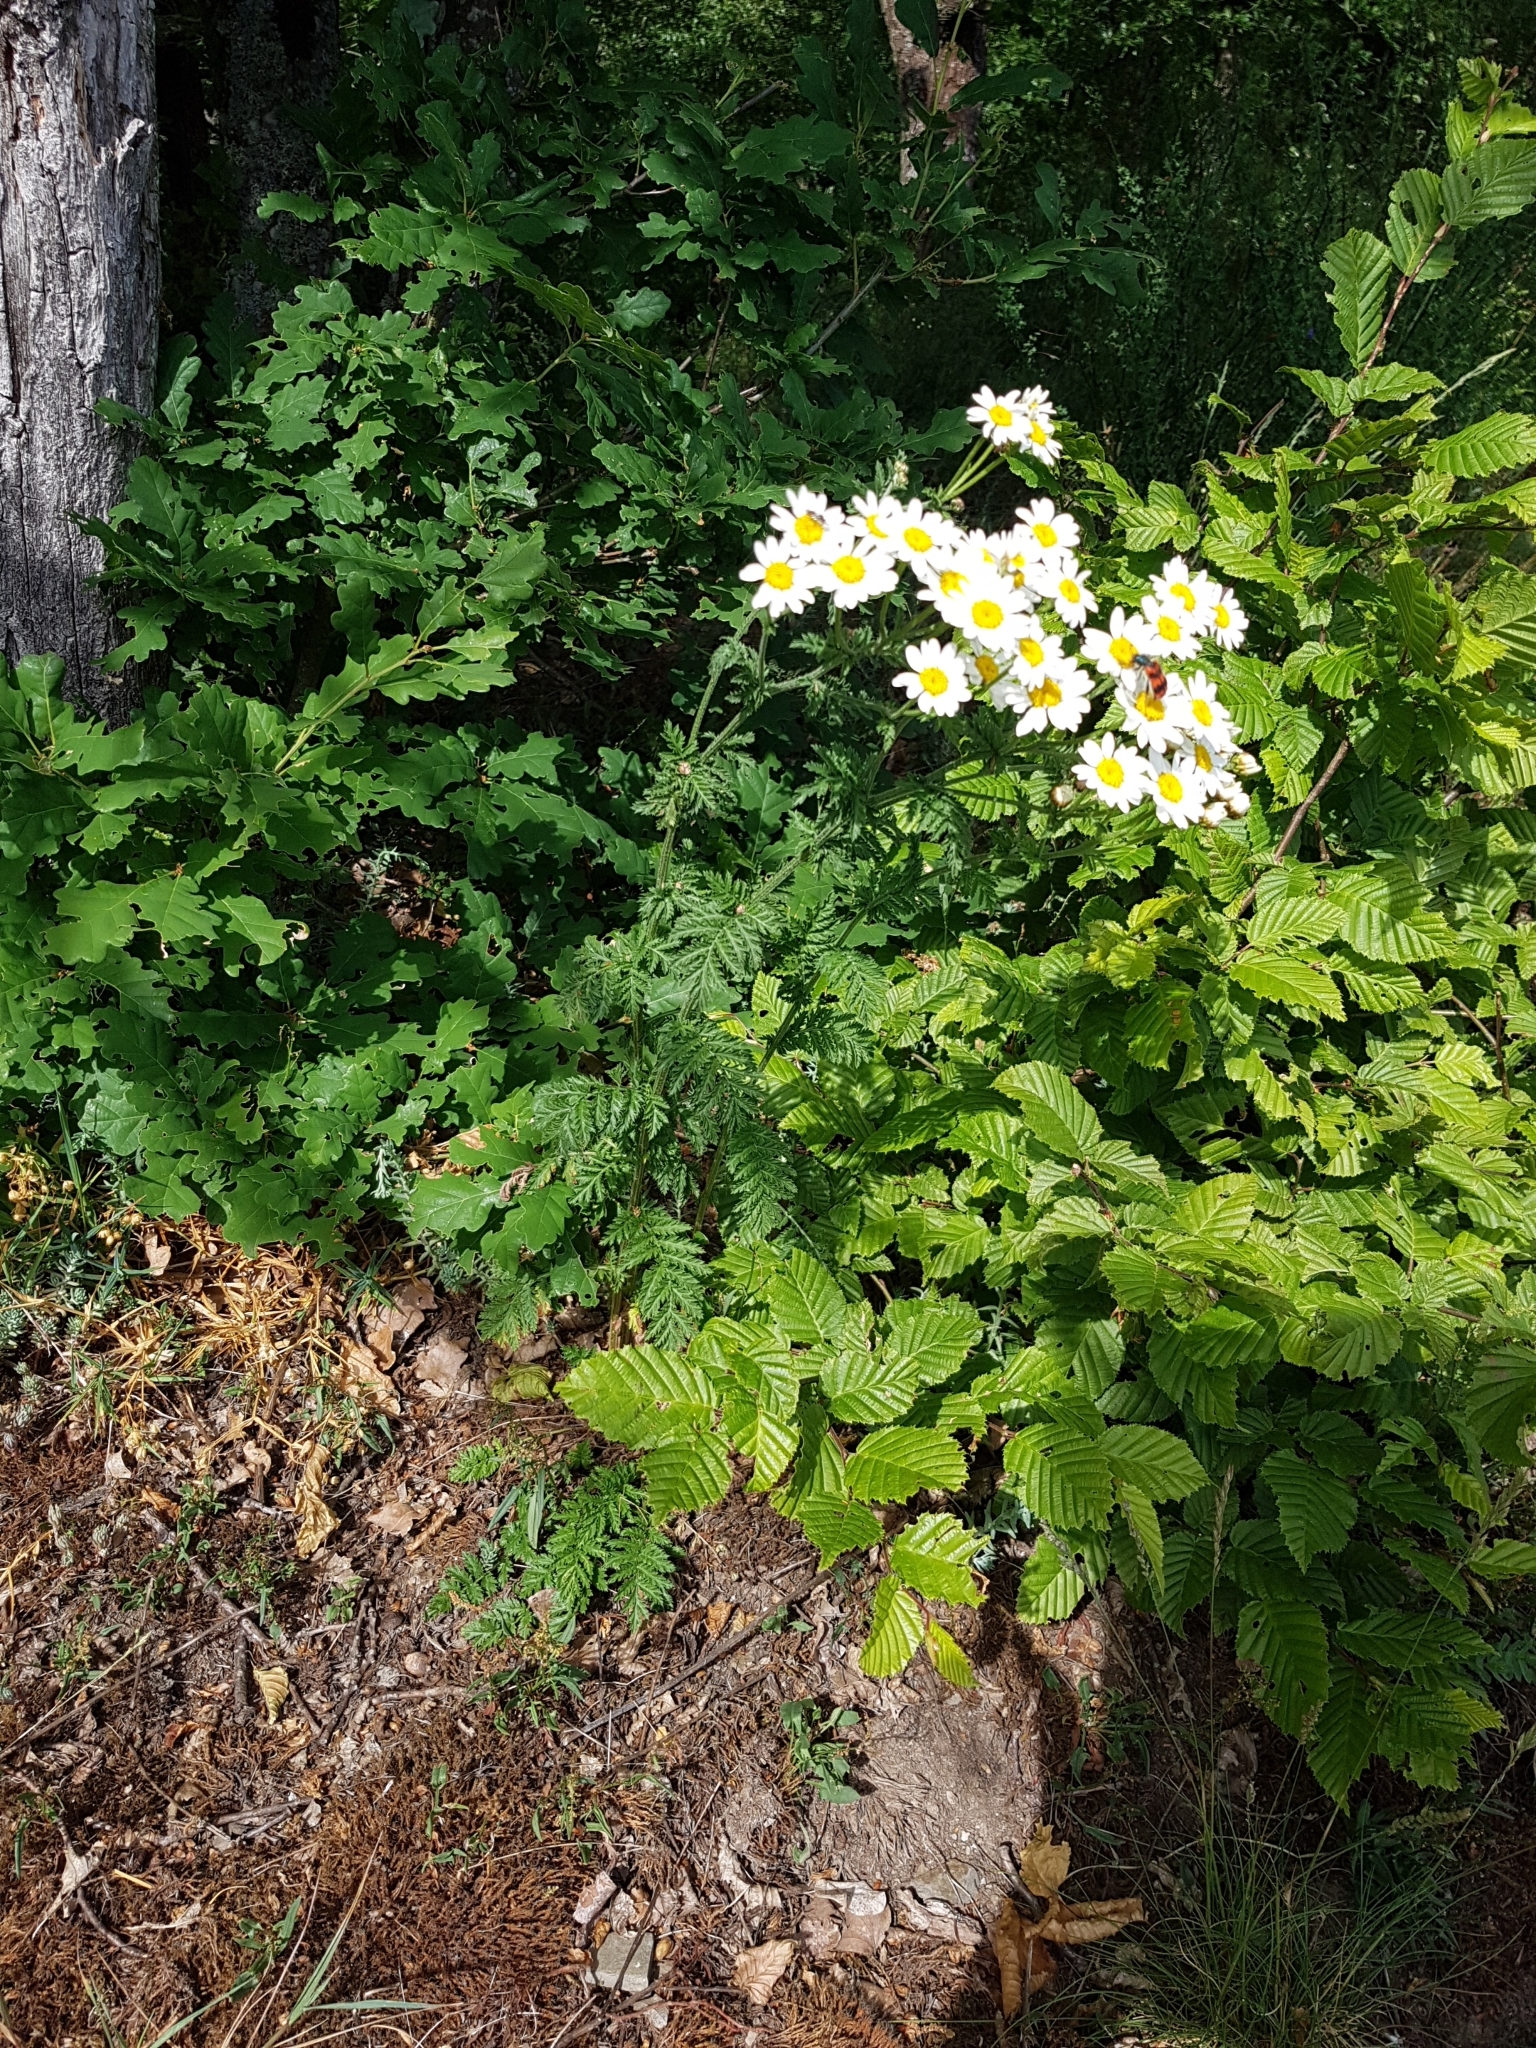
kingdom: Plantae
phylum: Tracheophyta
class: Magnoliopsida
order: Asterales
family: Asteraceae
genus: Tanacetum
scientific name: Tanacetum corymbosum
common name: Scentless feverfew
